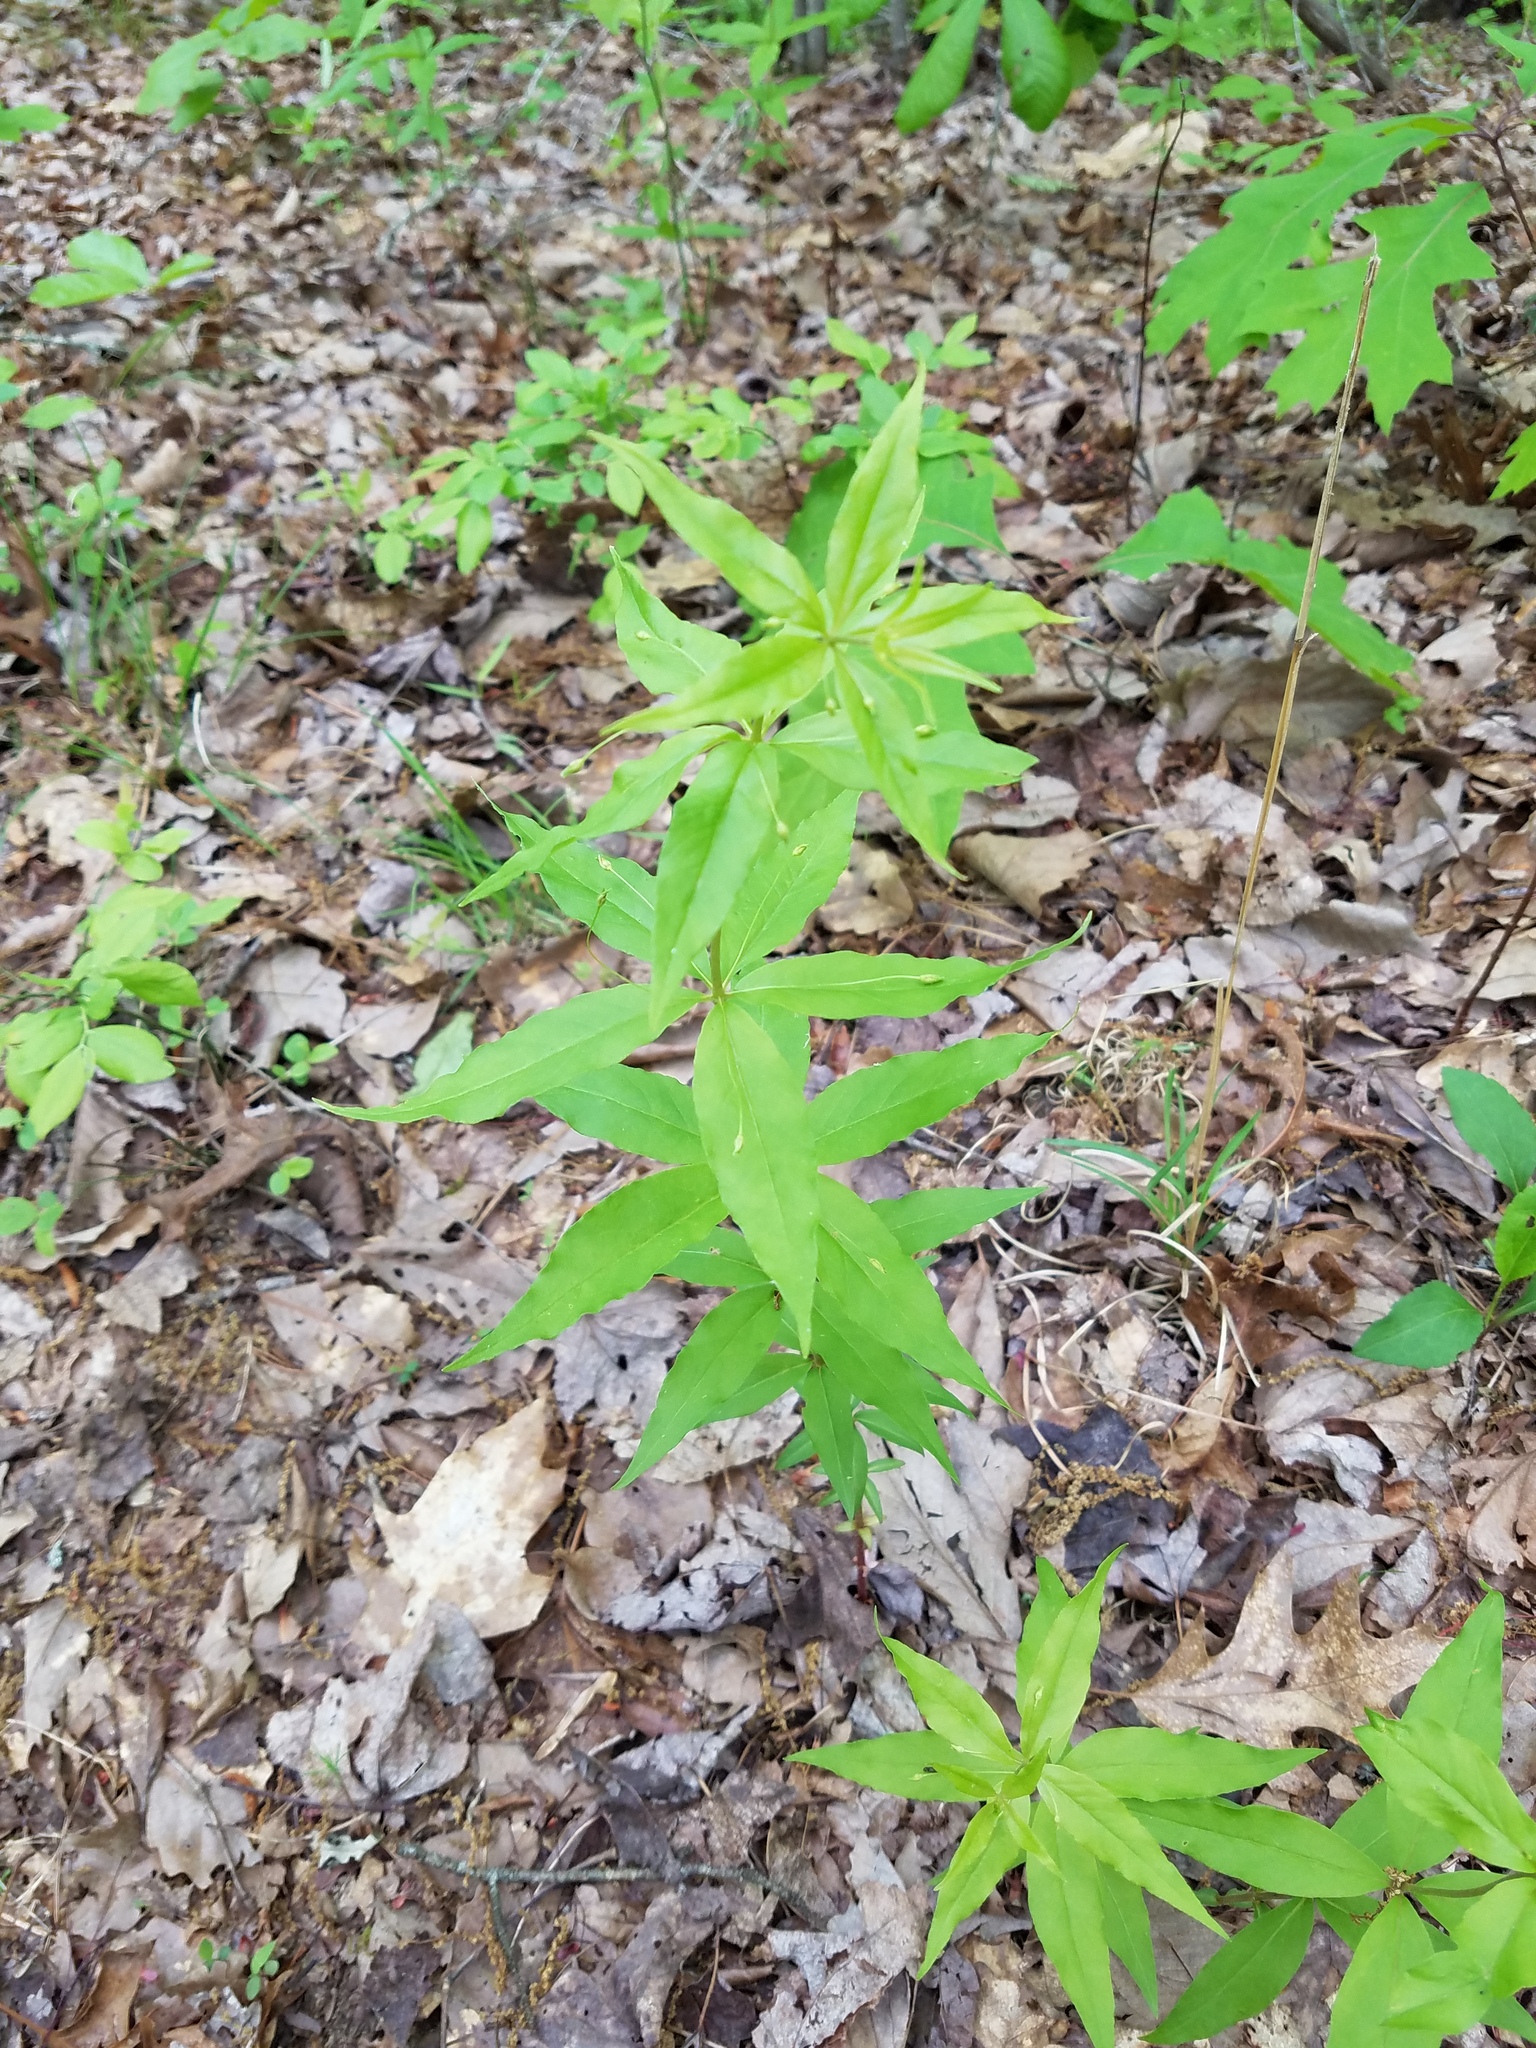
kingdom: Plantae
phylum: Tracheophyta
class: Magnoliopsida
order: Ericales
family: Primulaceae
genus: Lysimachia
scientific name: Lysimachia quadrifolia
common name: Whorled loosestrife
